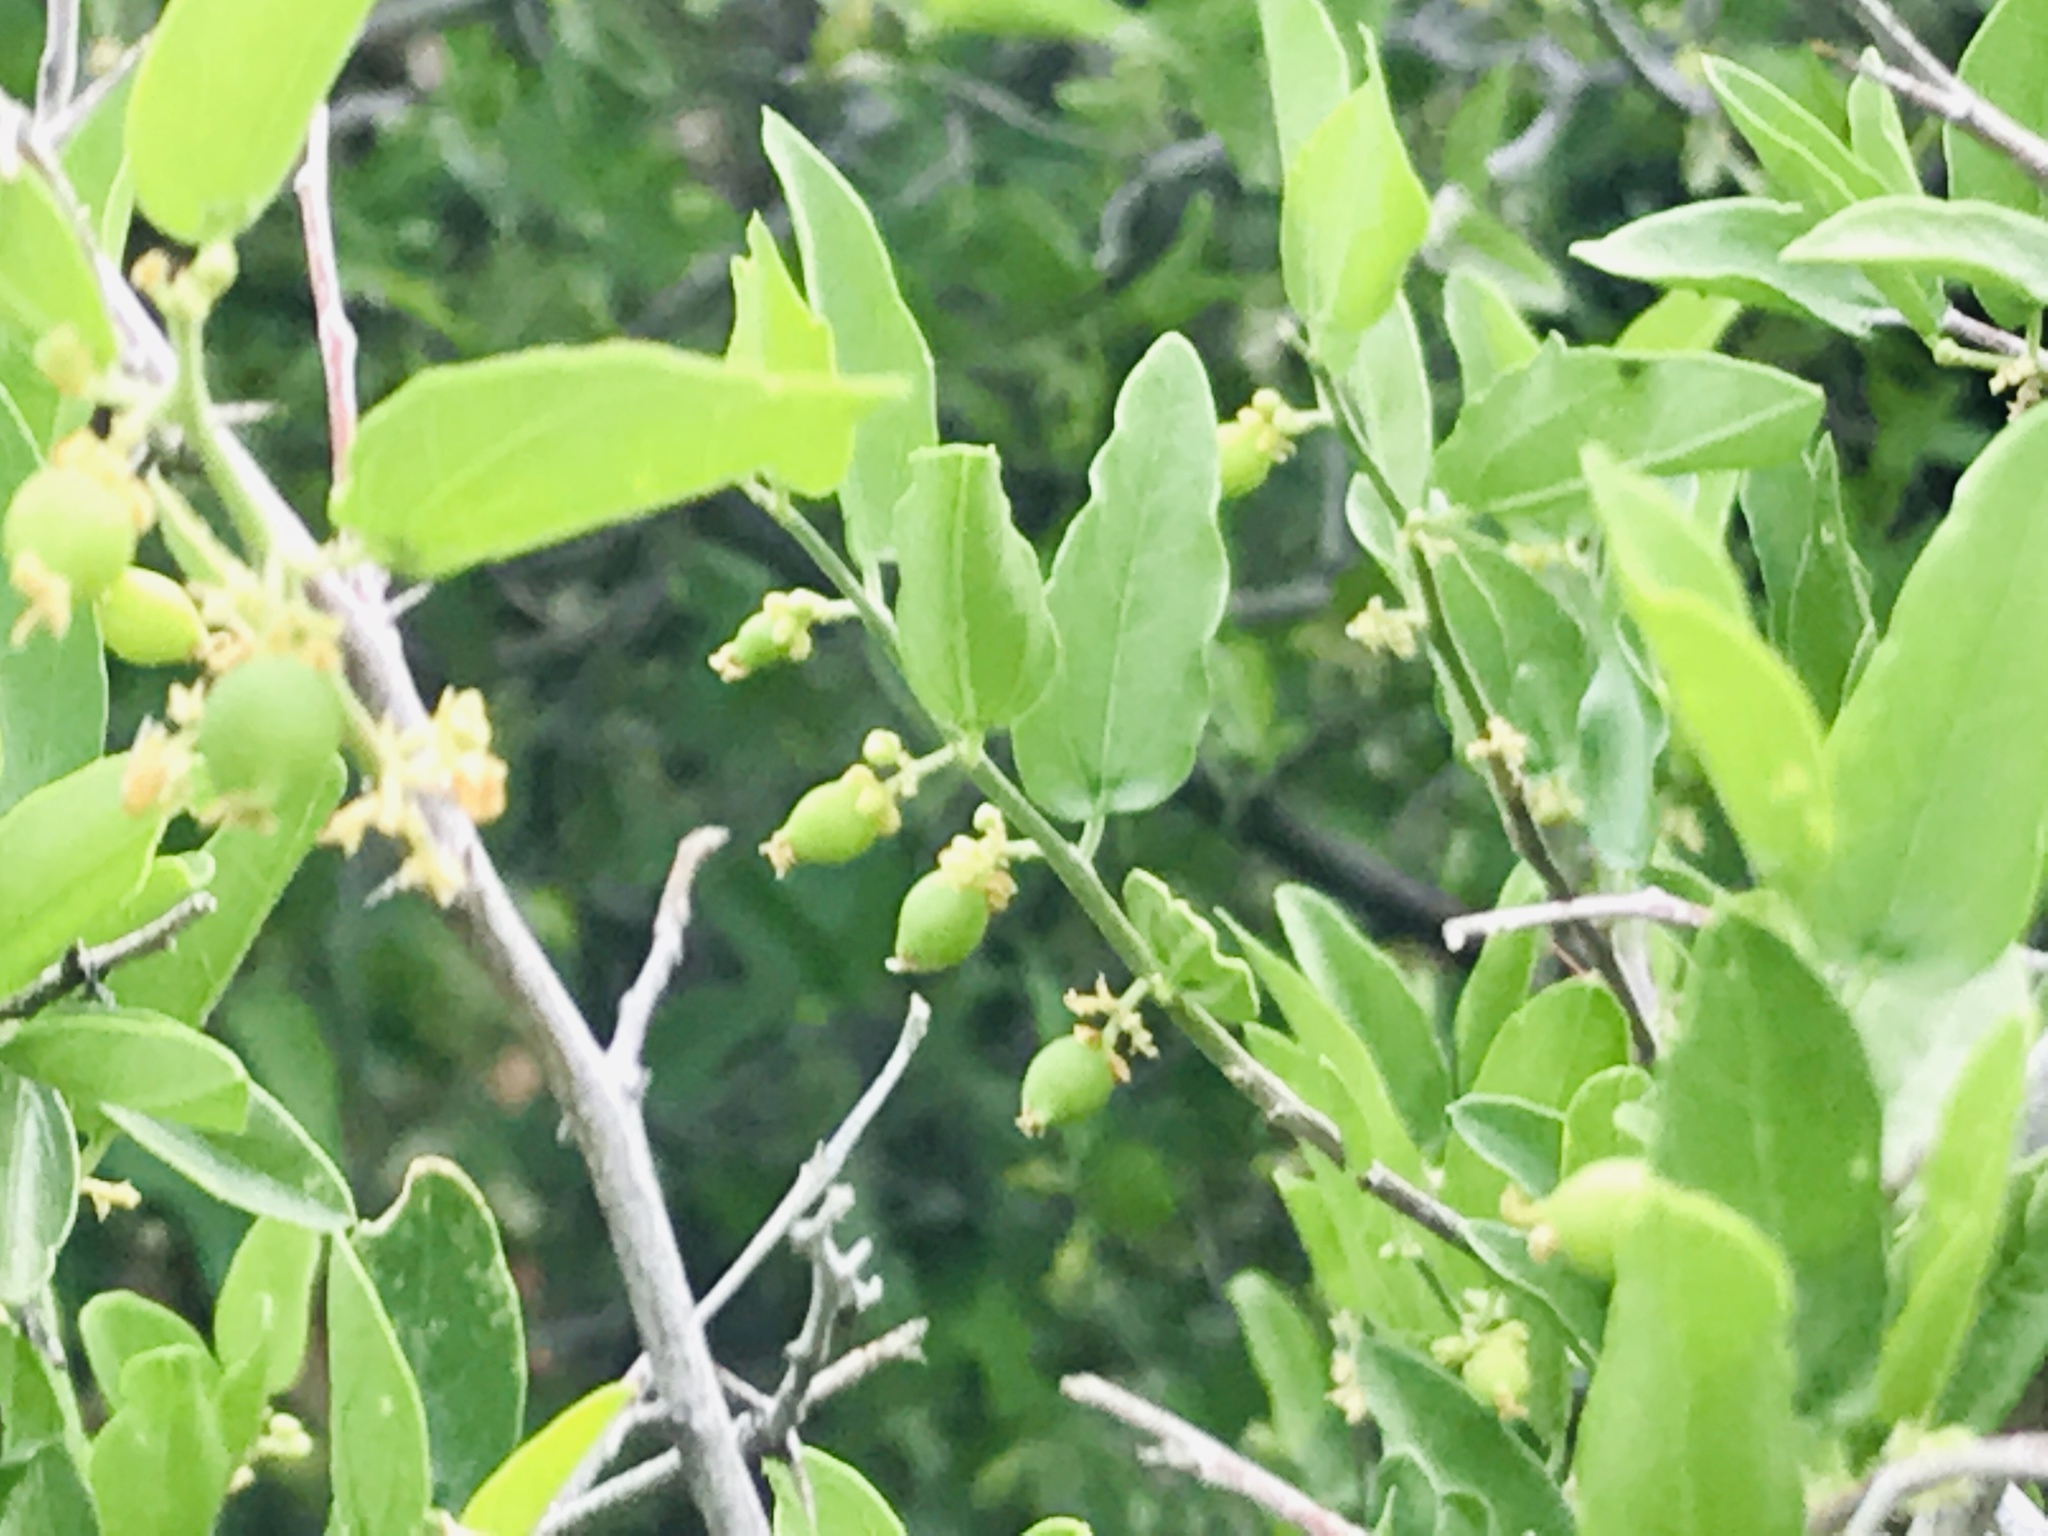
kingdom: Plantae
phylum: Tracheophyta
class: Magnoliopsida
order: Rosales
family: Cannabaceae
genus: Celtis
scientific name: Celtis pallida
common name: Desert hackberry
